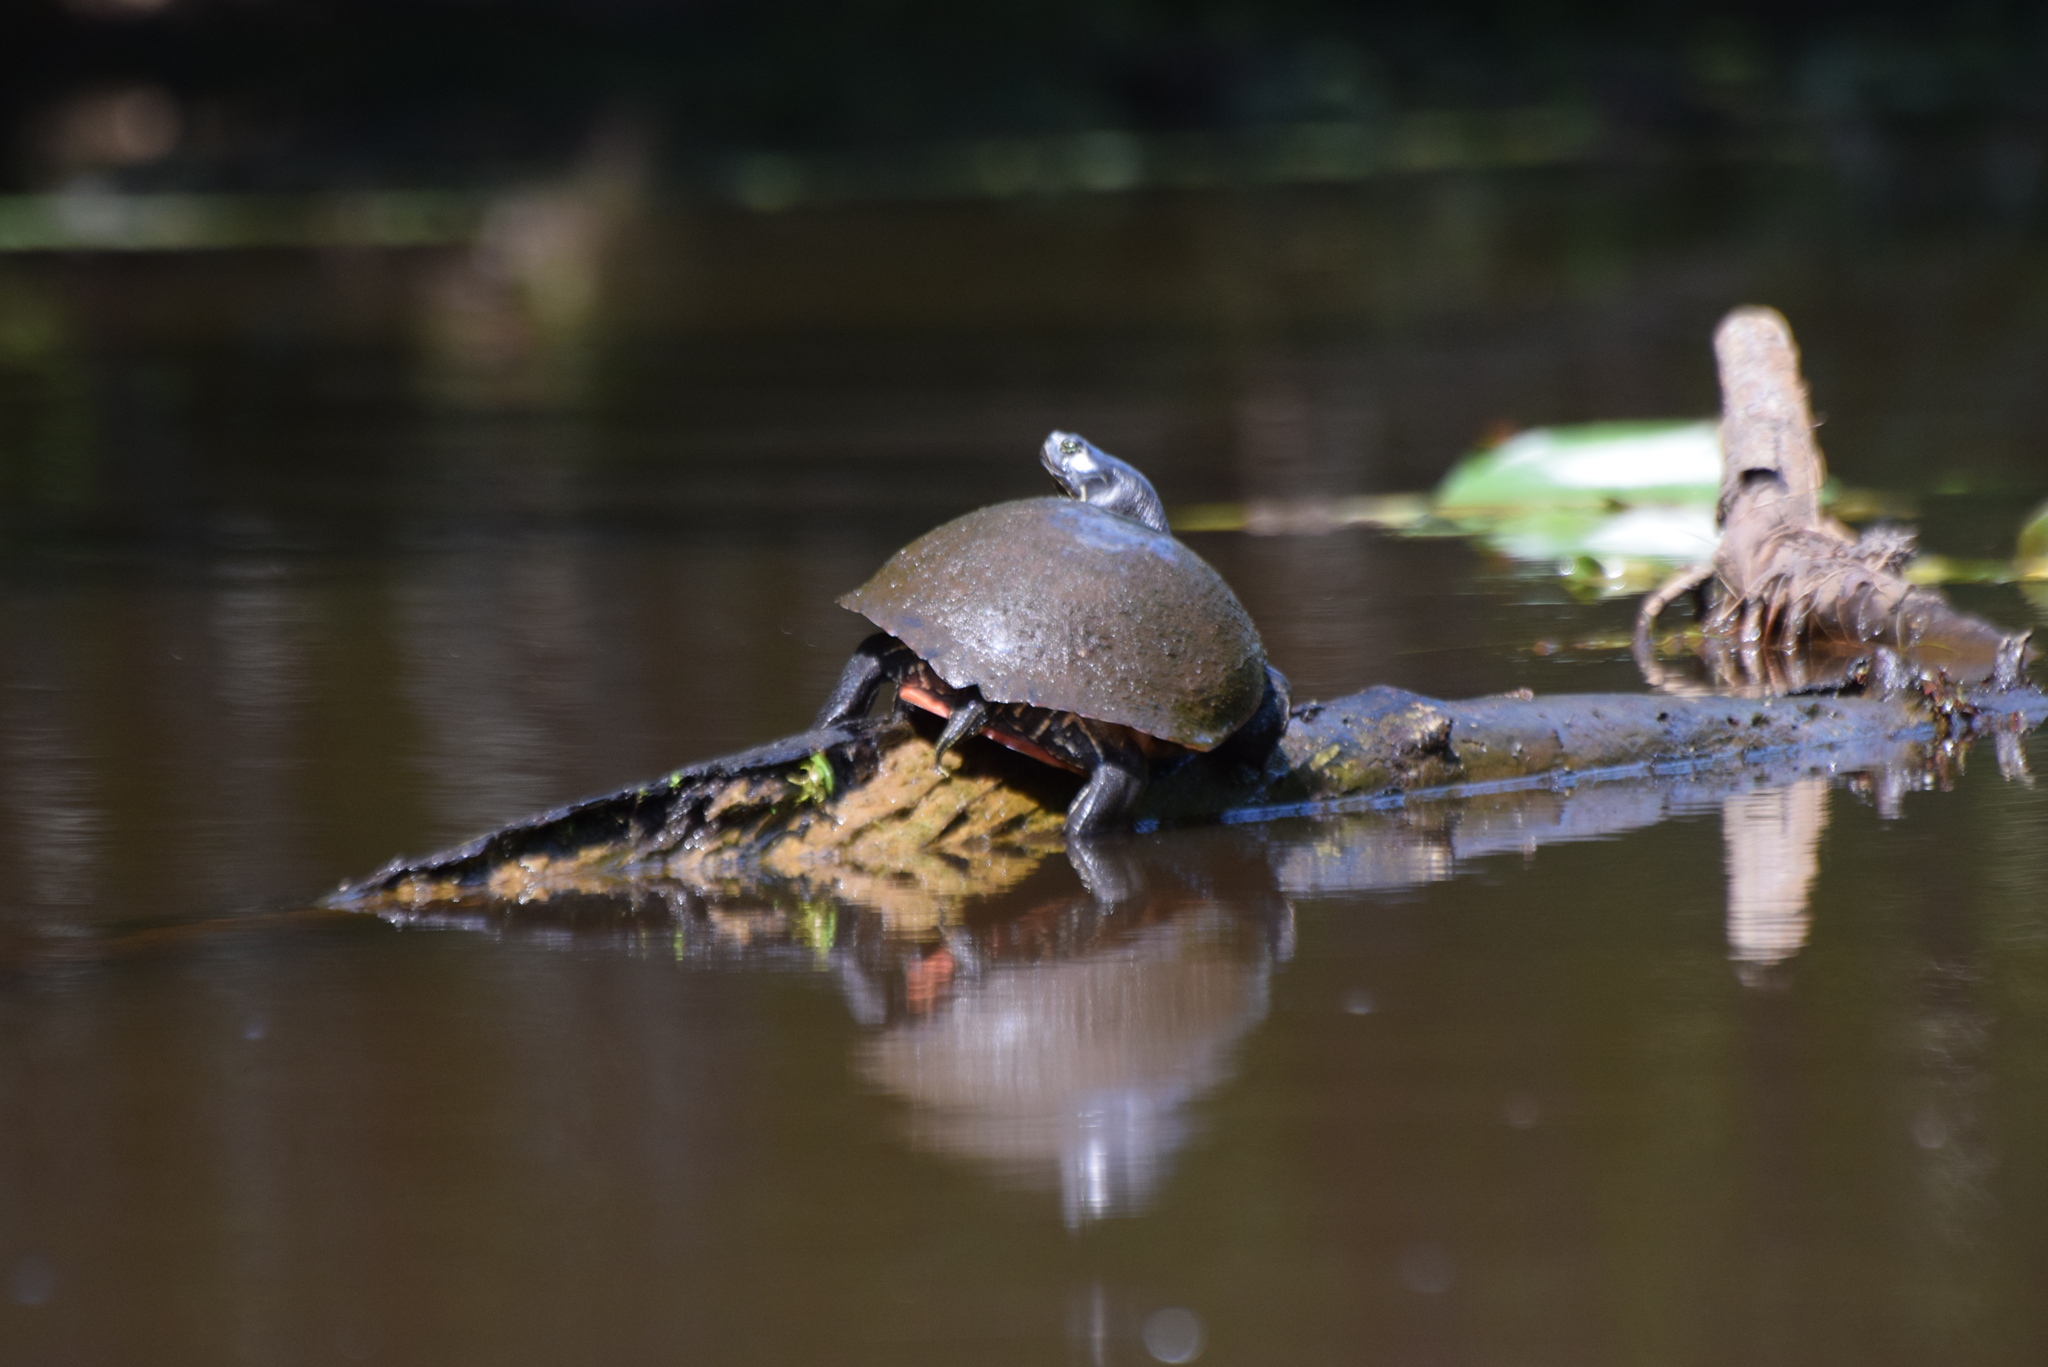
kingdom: Animalia
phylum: Chordata
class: Testudines
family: Emydidae
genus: Pseudemys
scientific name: Pseudemys rubriventris
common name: American red-bellied turtle
